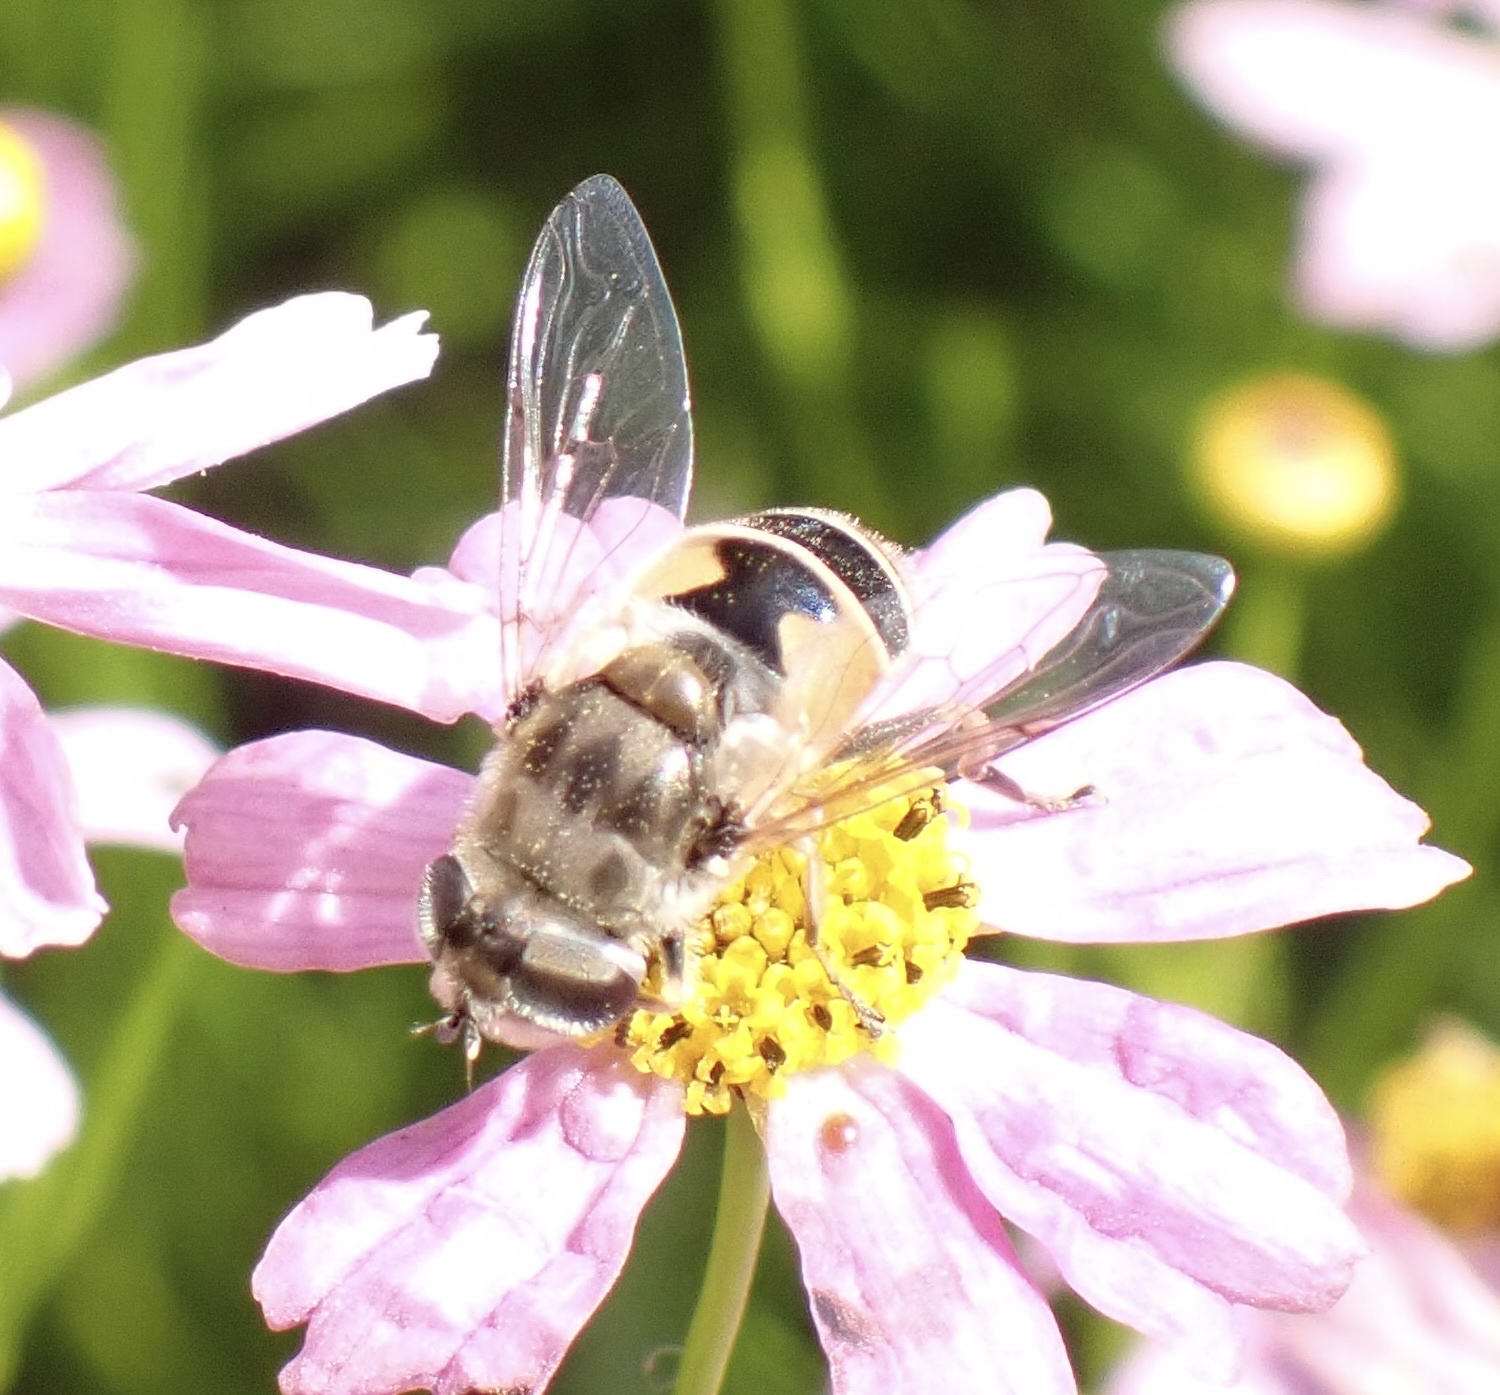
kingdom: Animalia
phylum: Arthropoda
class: Insecta
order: Diptera
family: Syrphidae
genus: Eristalis
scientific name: Eristalis arbustorum
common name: Hover fly
